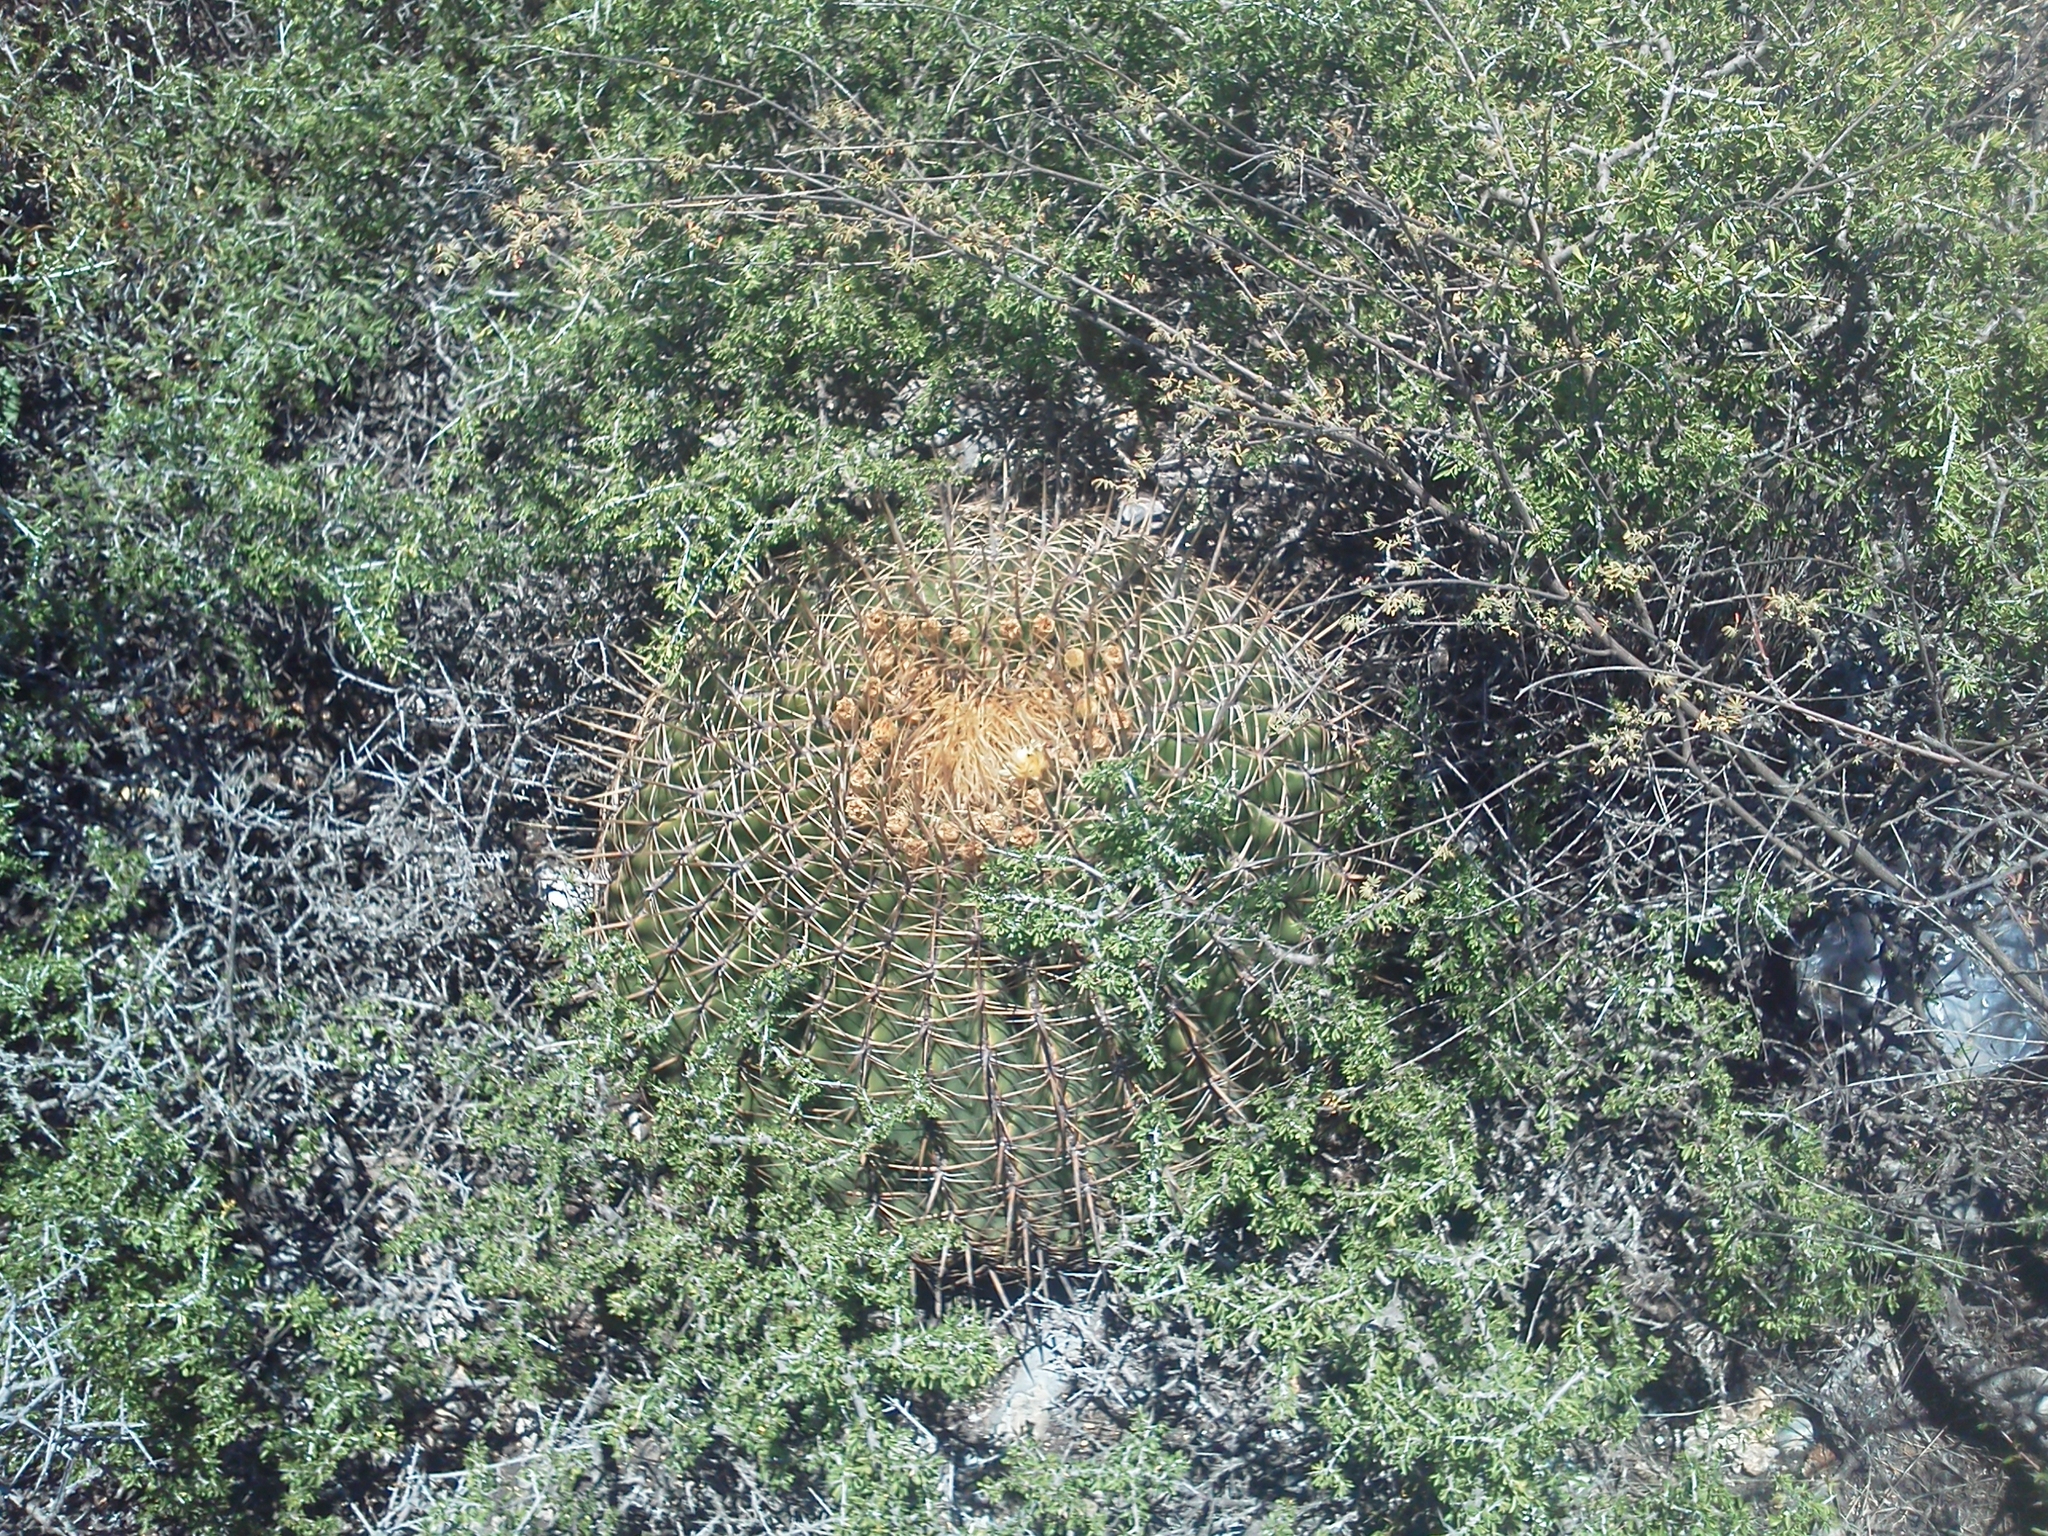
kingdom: Plantae
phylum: Tracheophyta
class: Magnoliopsida
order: Caryophyllales
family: Cactaceae
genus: Bisnaga
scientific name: Bisnaga histrix
